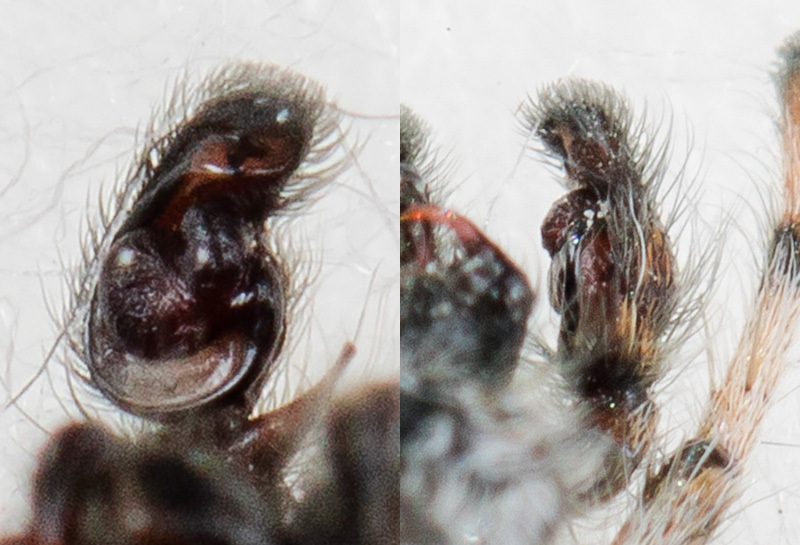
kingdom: Animalia
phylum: Arthropoda
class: Arachnida
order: Araneae
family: Salticidae
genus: Mogrus
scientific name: Mogrus valerii
